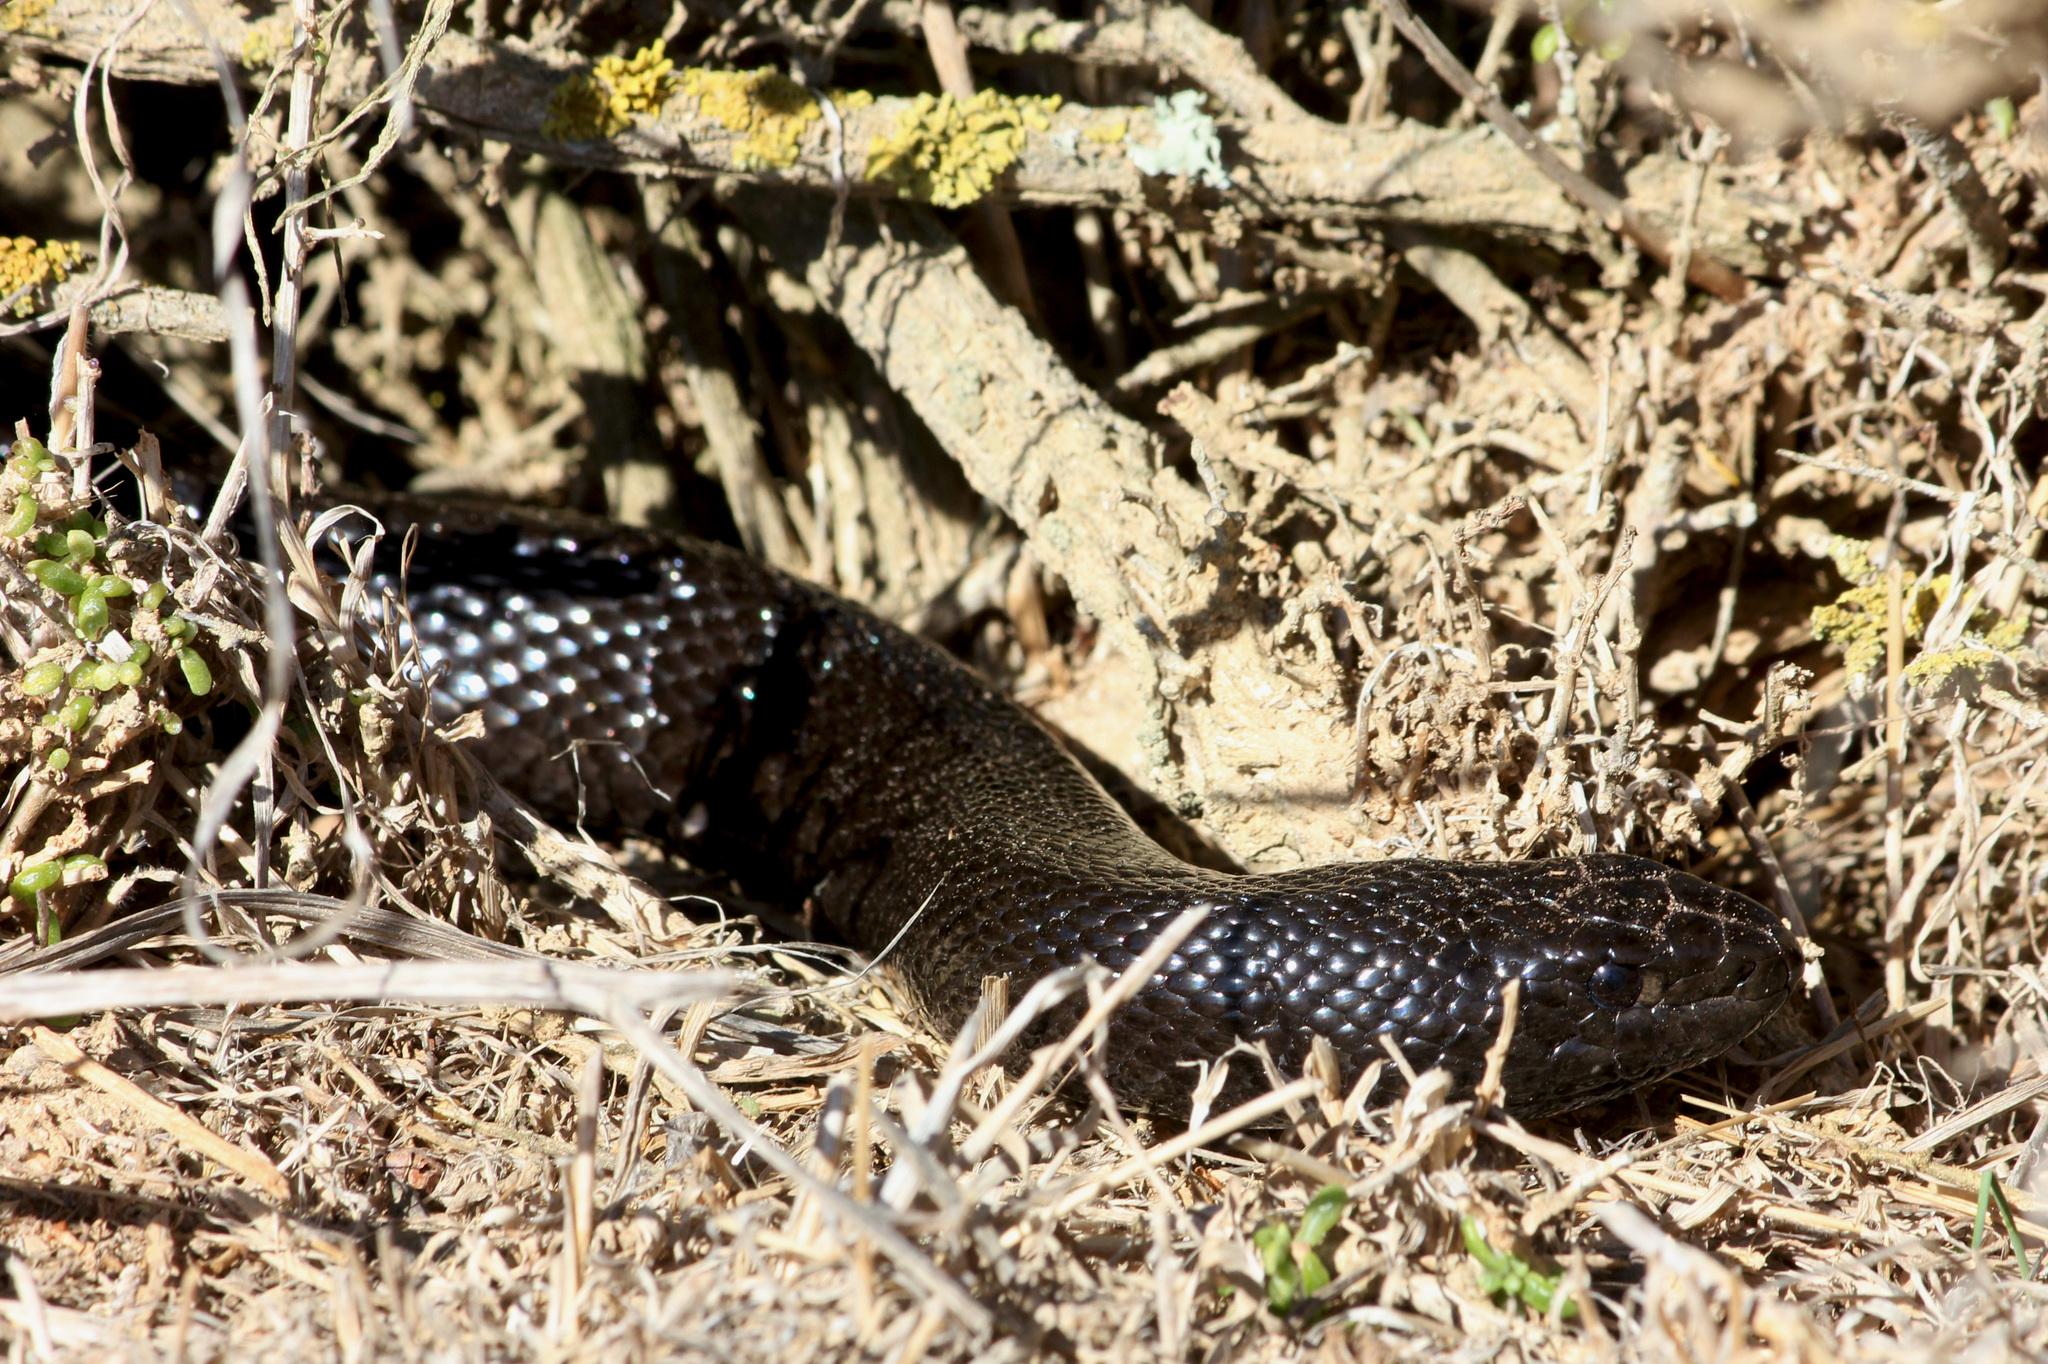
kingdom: Animalia
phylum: Chordata
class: Squamata
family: Pseudaspididae
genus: Pseudaspis
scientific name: Pseudaspis cana
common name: Mole snake
